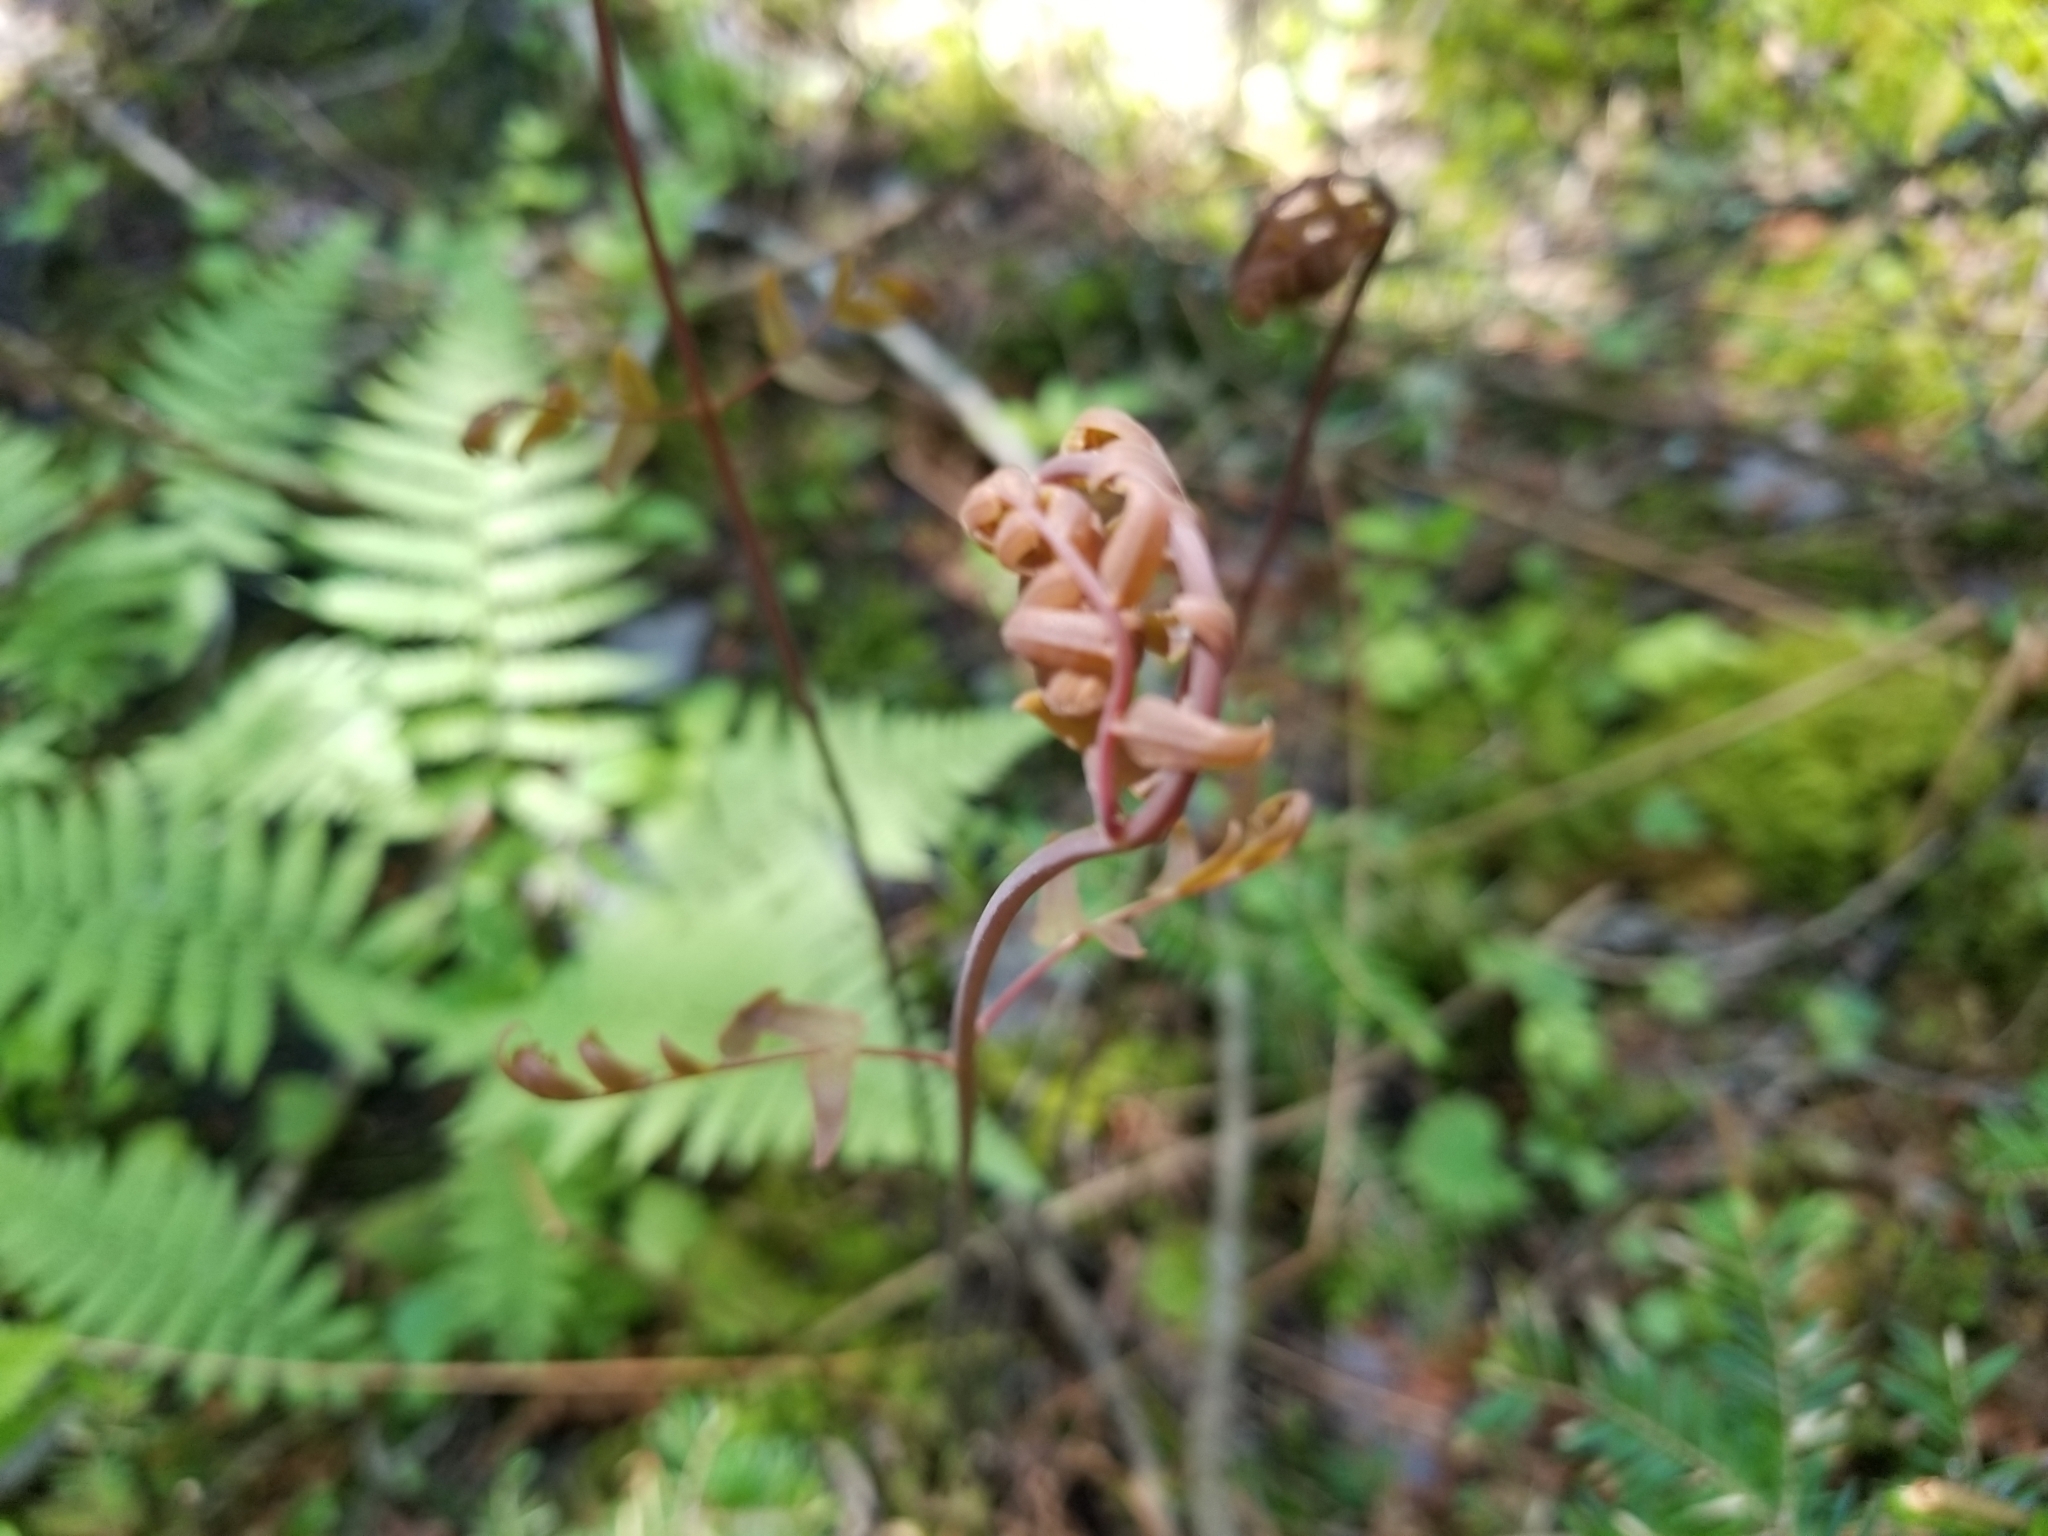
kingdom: Plantae
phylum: Tracheophyta
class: Polypodiopsida
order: Osmundales
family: Osmundaceae
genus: Osmunda
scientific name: Osmunda spectabilis
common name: American royal fern
